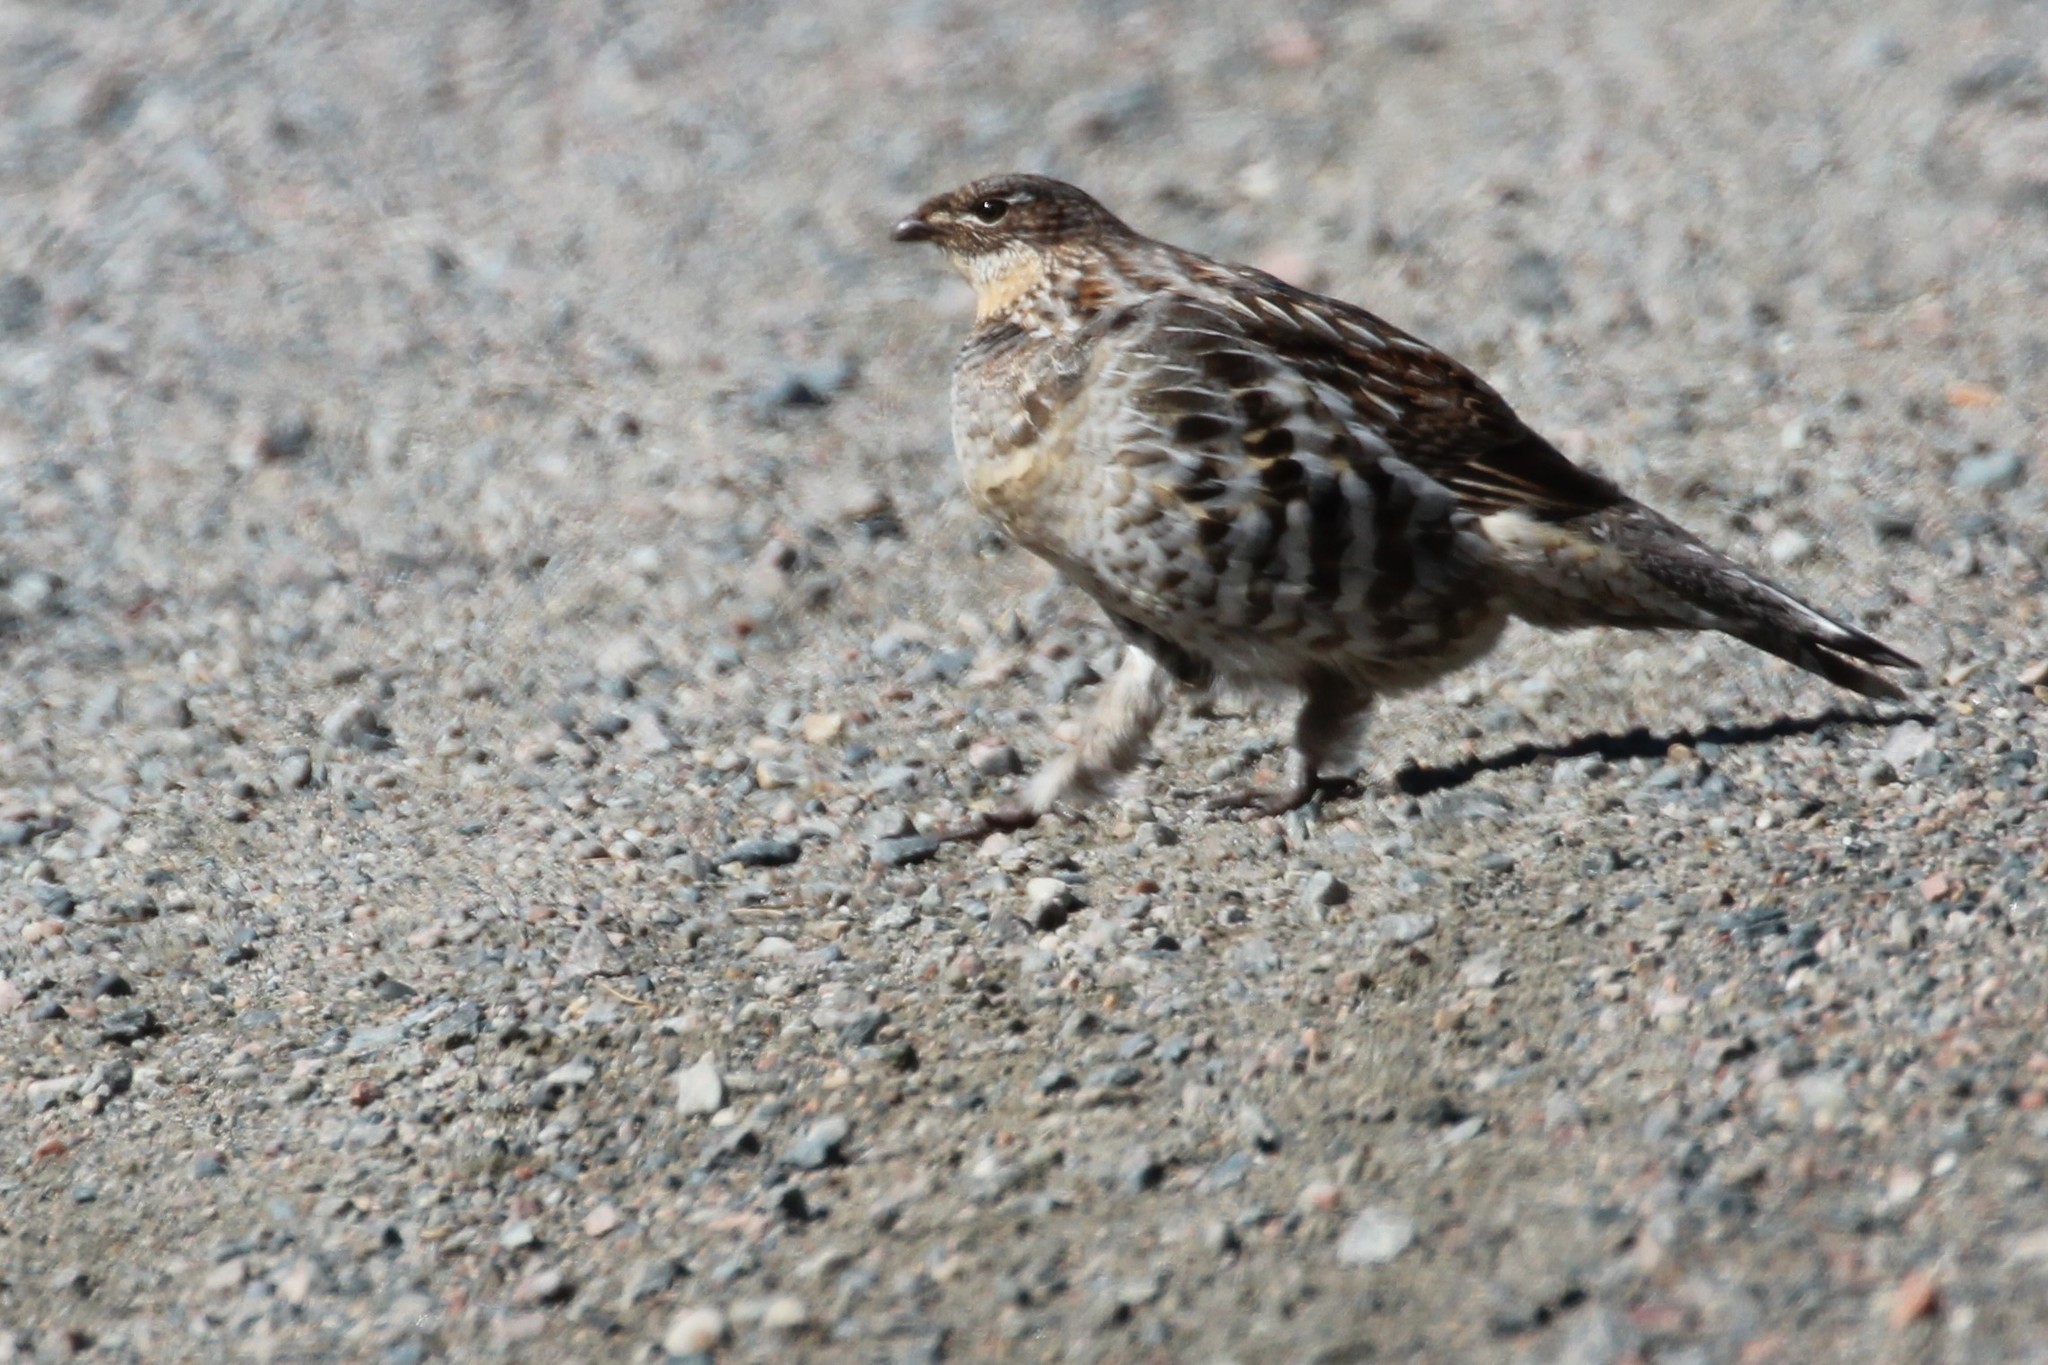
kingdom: Animalia
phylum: Chordata
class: Aves
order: Galliformes
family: Phasianidae
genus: Bonasa
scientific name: Bonasa umbellus
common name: Ruffed grouse
